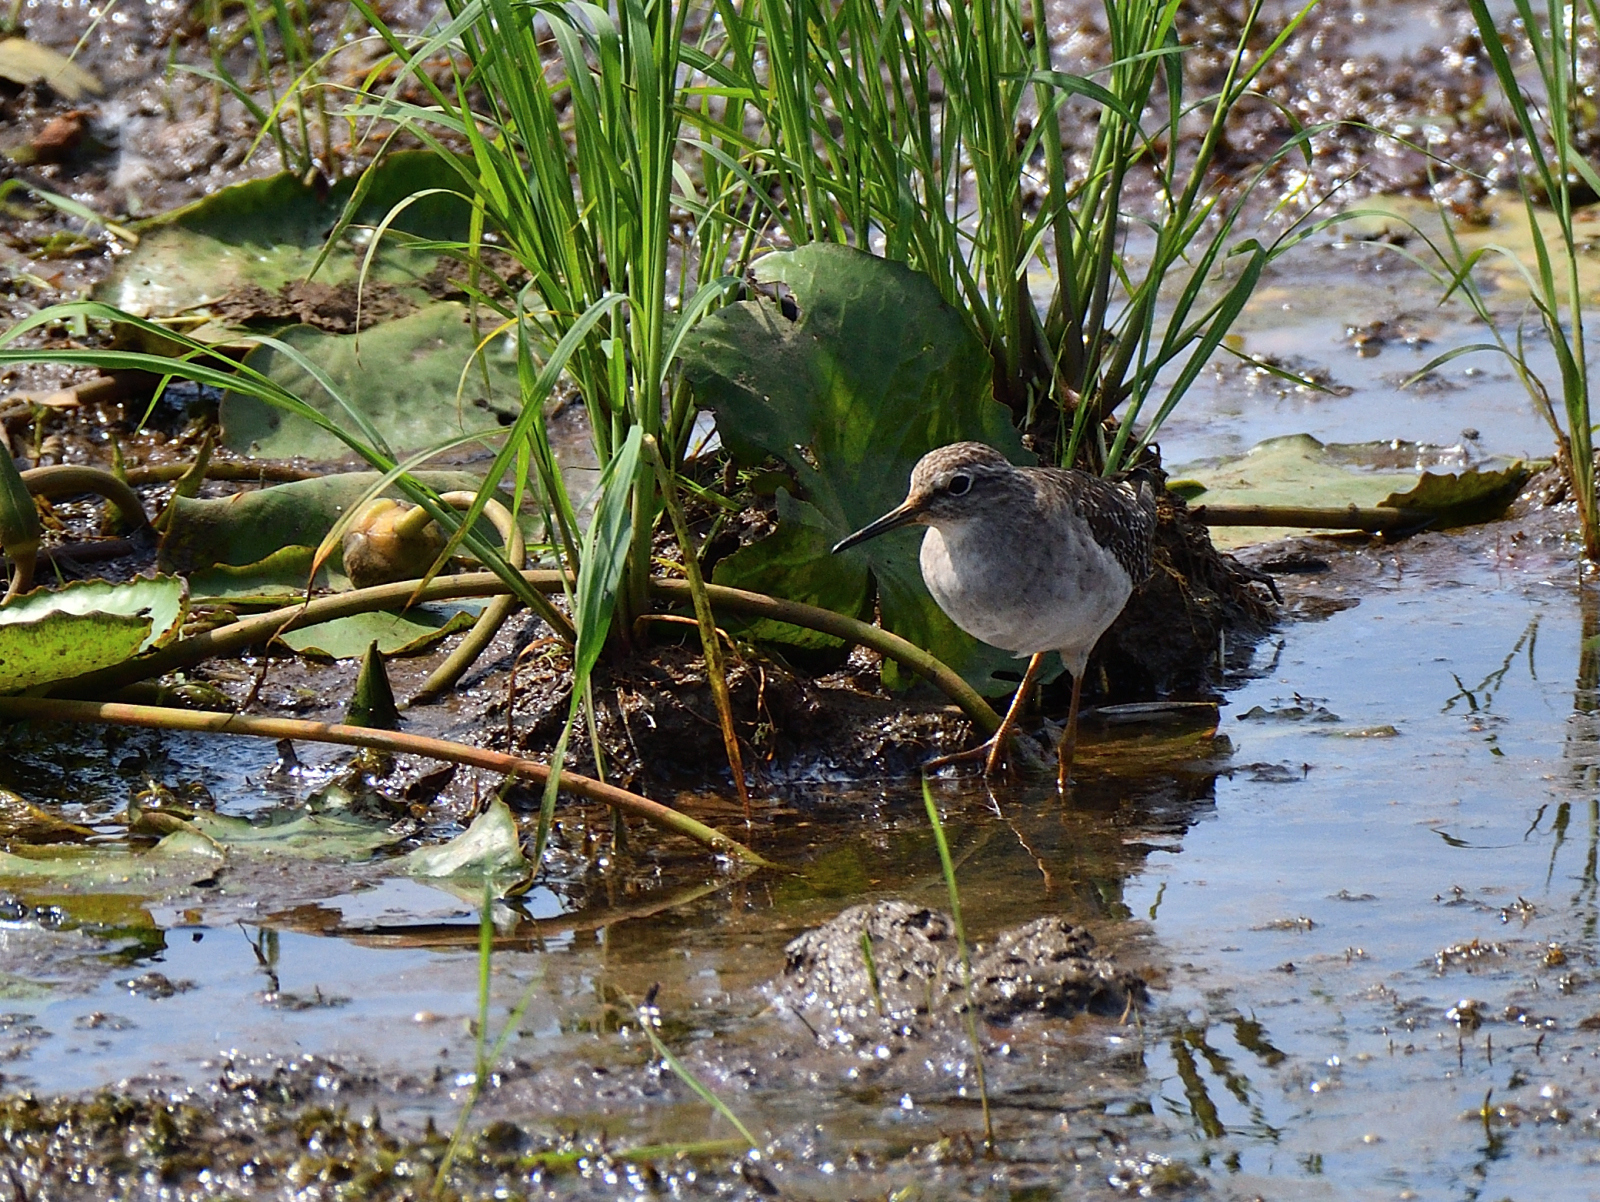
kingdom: Animalia
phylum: Chordata
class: Aves
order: Charadriiformes
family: Scolopacidae
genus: Tringa
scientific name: Tringa glareola
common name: Wood sandpiper
